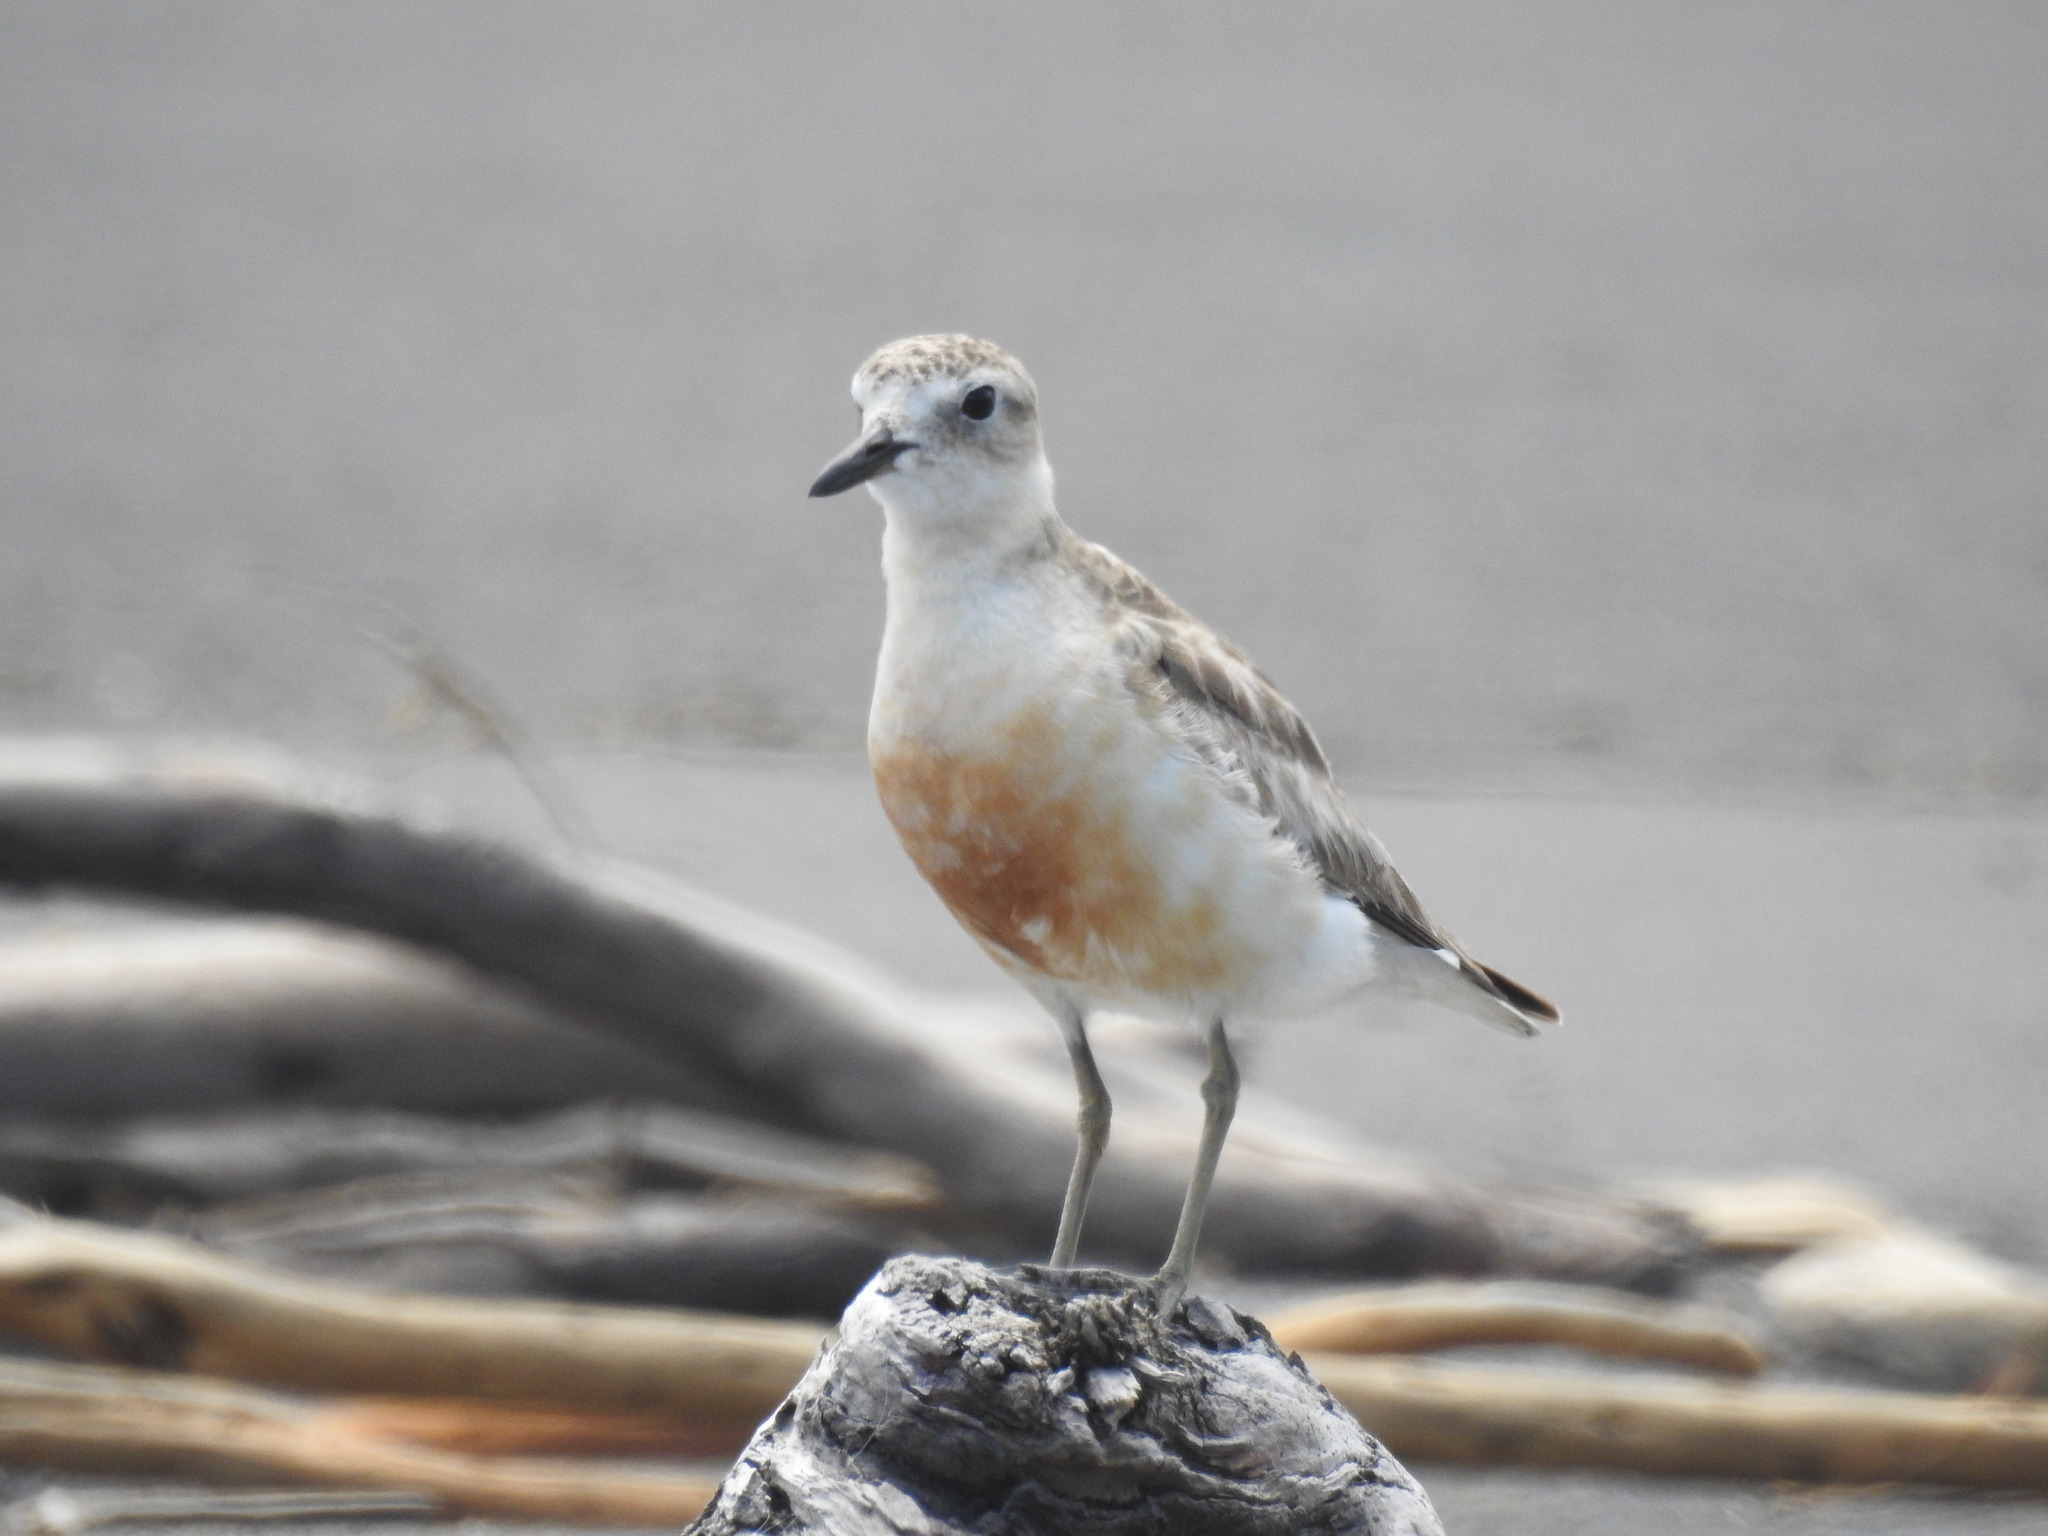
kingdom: Animalia
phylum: Chordata
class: Aves
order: Charadriiformes
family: Charadriidae
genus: Anarhynchus
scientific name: Anarhynchus
